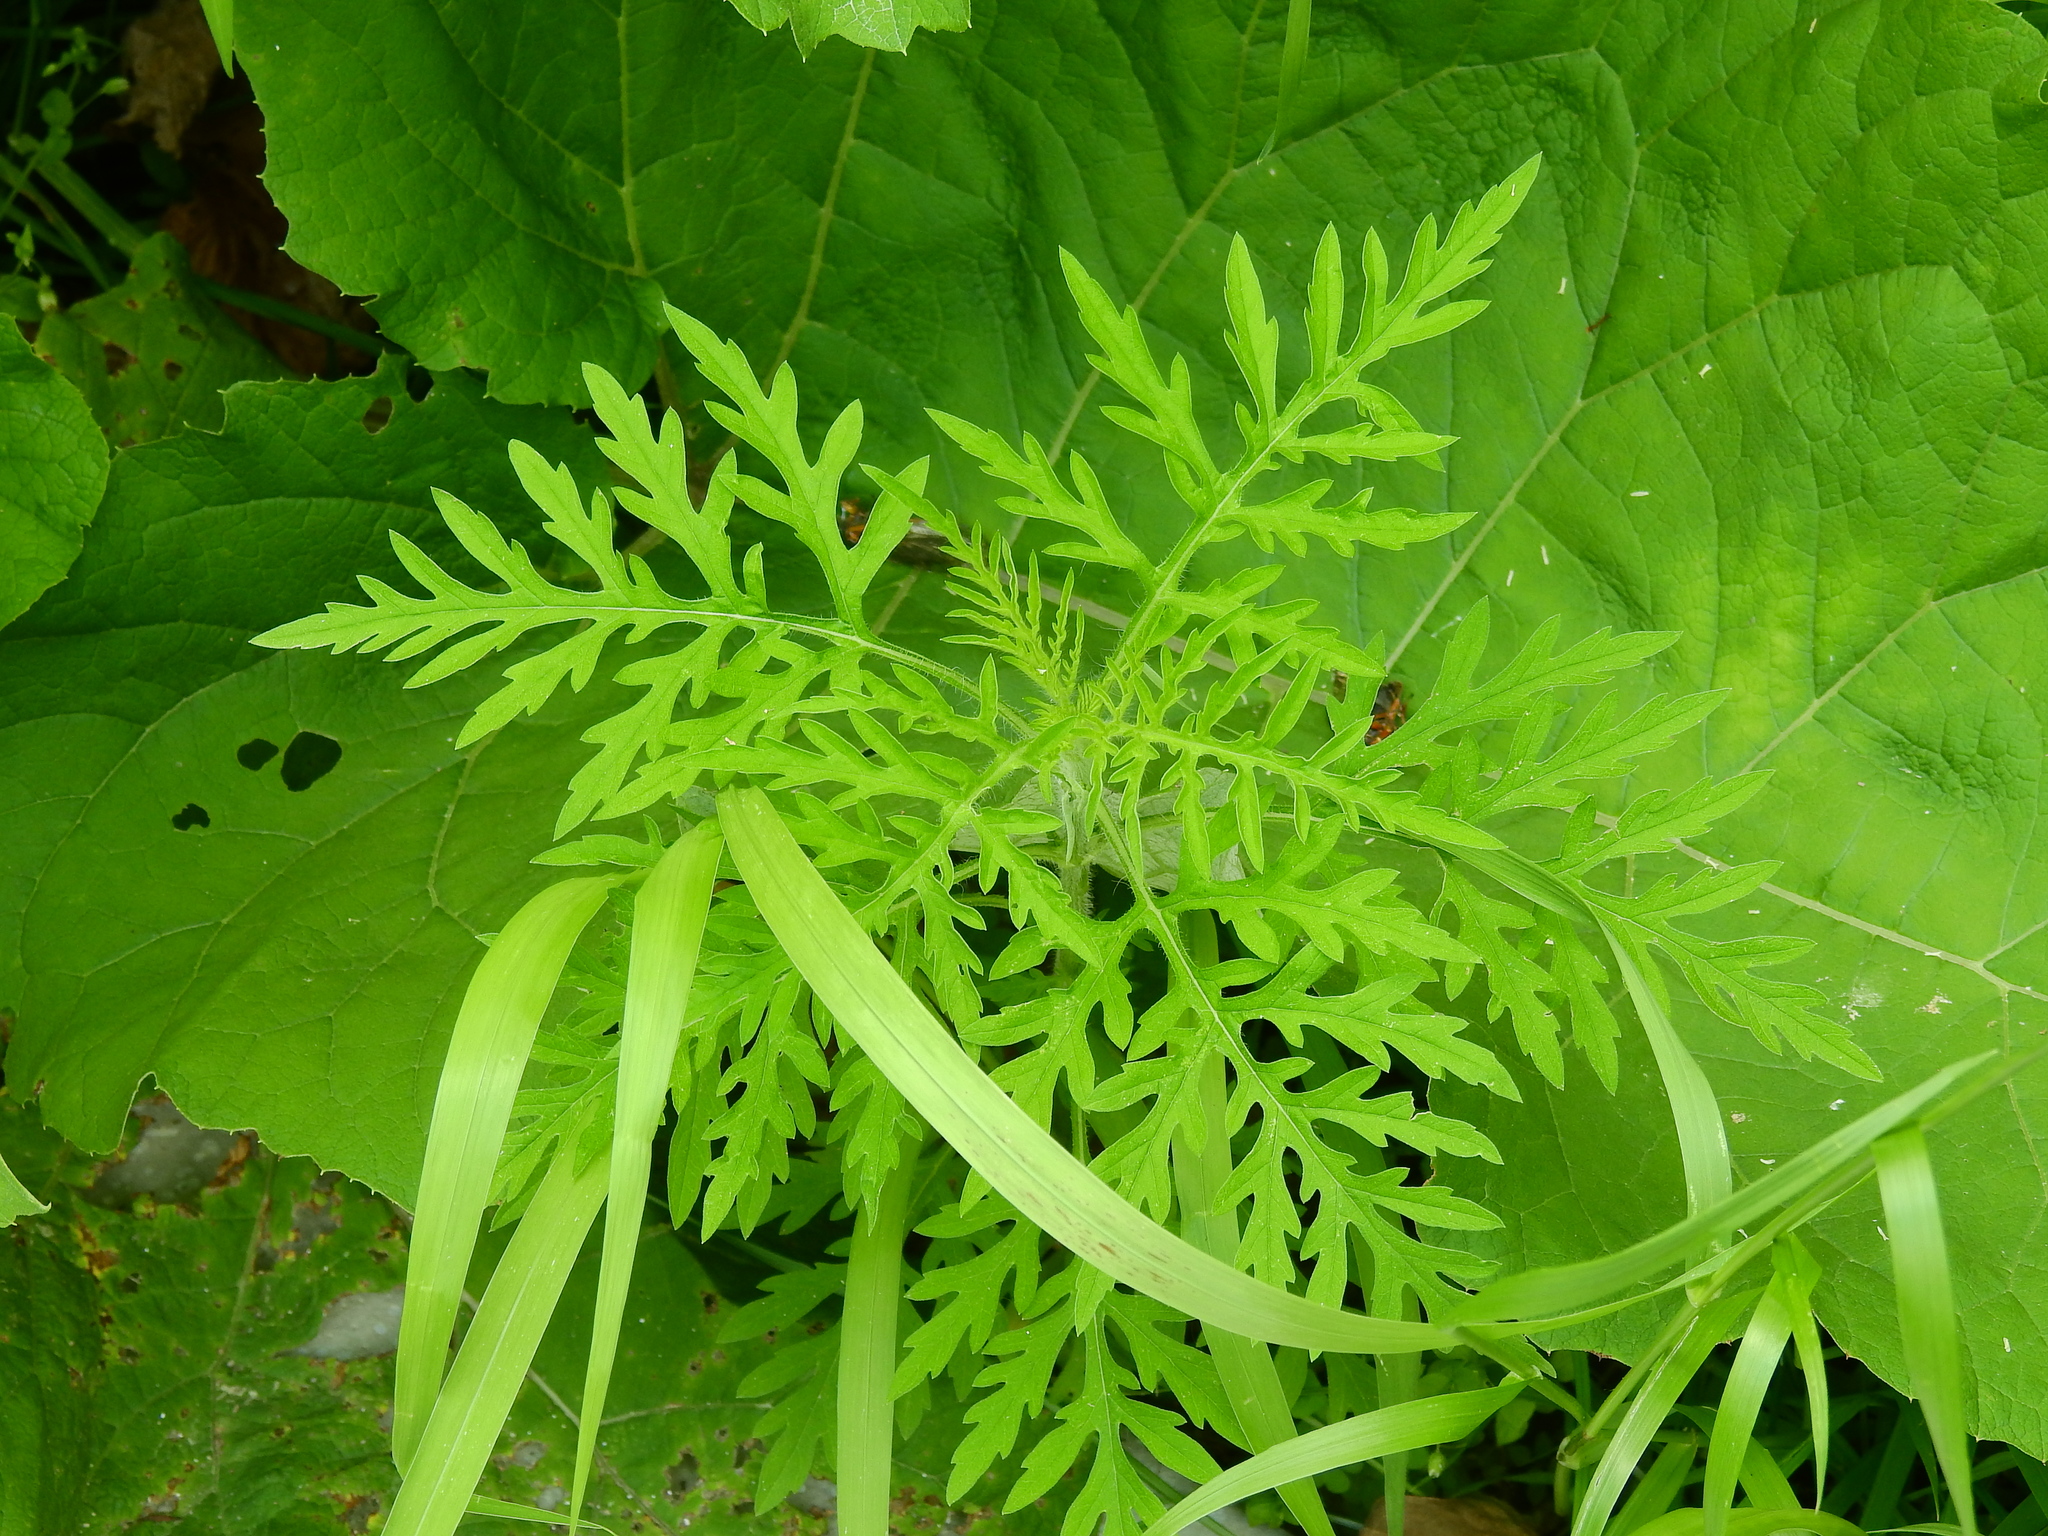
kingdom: Plantae
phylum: Tracheophyta
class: Magnoliopsida
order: Asterales
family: Asteraceae
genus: Ambrosia
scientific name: Ambrosia artemisiifolia
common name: Annual ragweed
